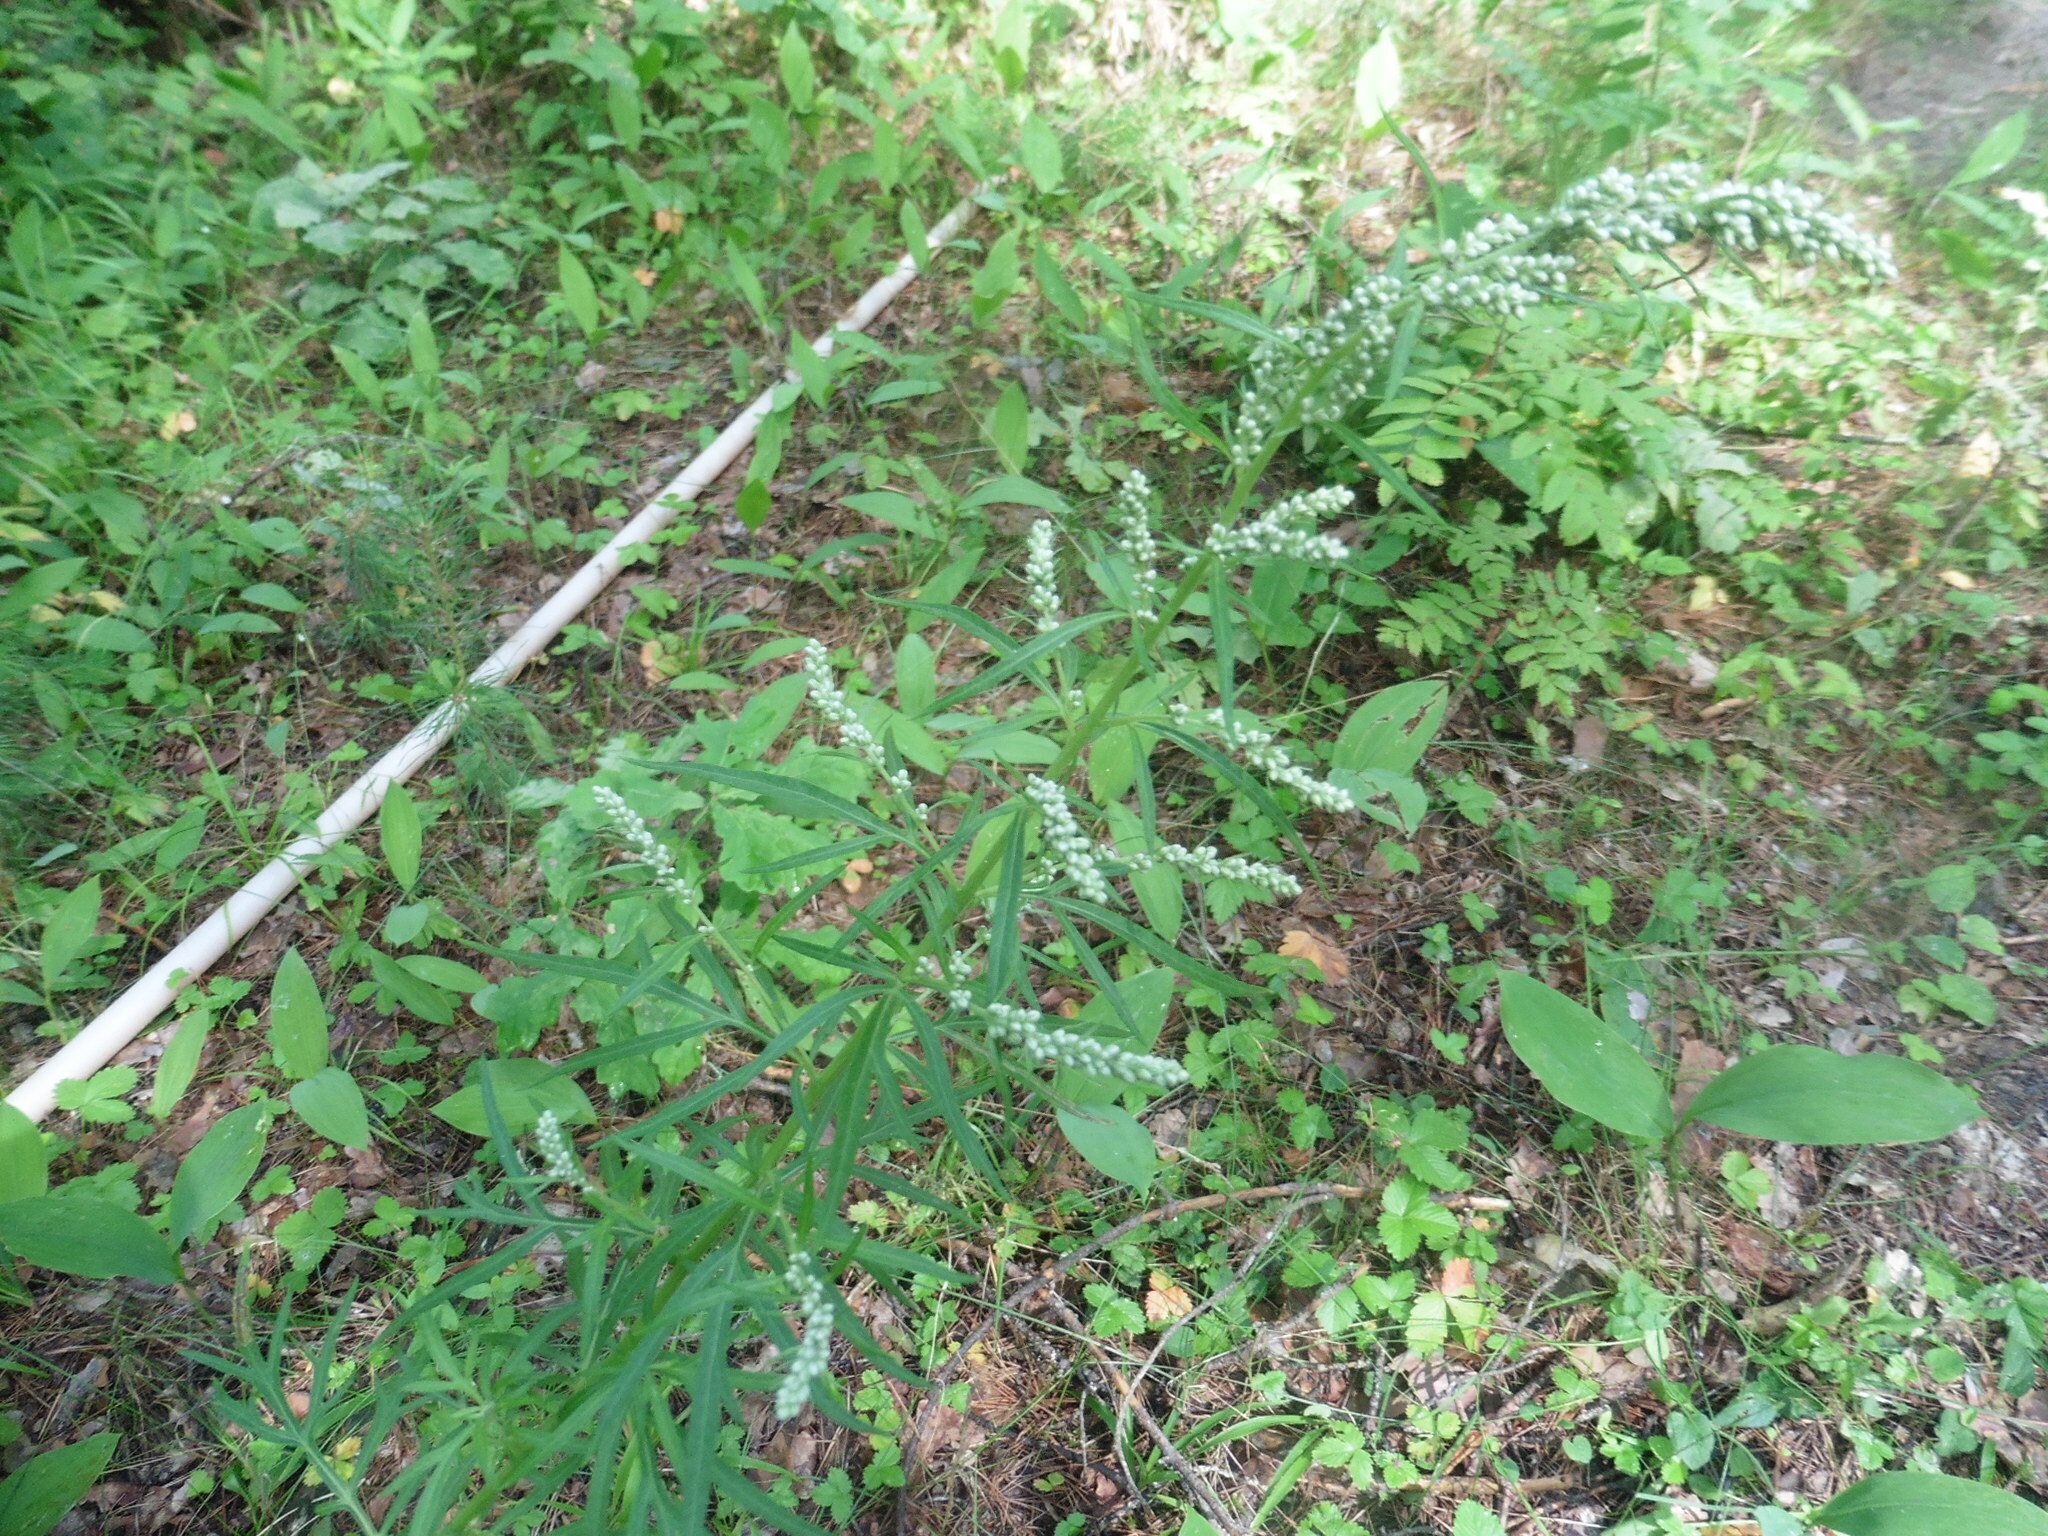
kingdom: Plantae
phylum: Tracheophyta
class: Magnoliopsida
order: Asterales
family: Asteraceae
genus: Artemisia
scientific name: Artemisia vulgaris
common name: Mugwort
